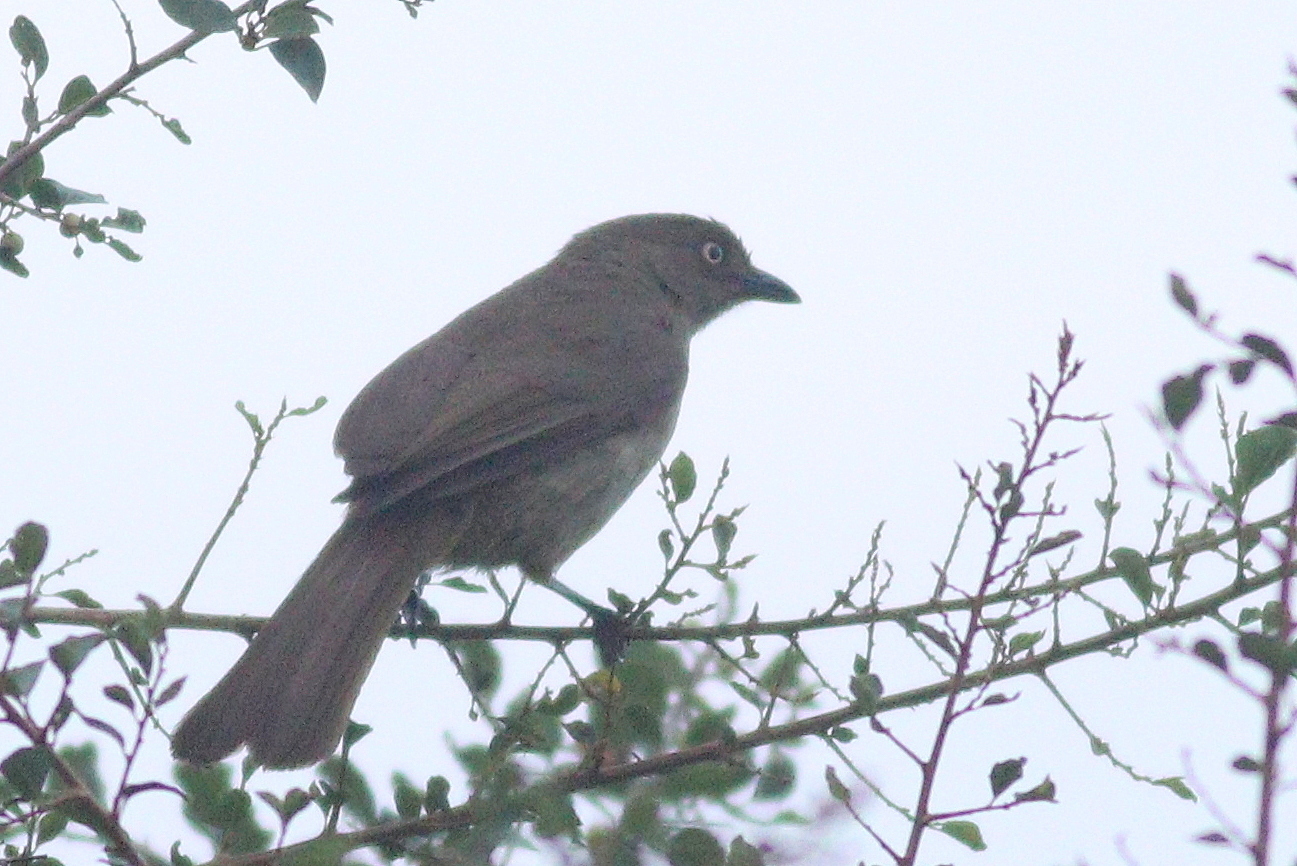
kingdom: Animalia
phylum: Chordata
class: Aves
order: Passeriformes
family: Pycnonotidae
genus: Andropadus
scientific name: Andropadus importunus
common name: Sombre greenbul
